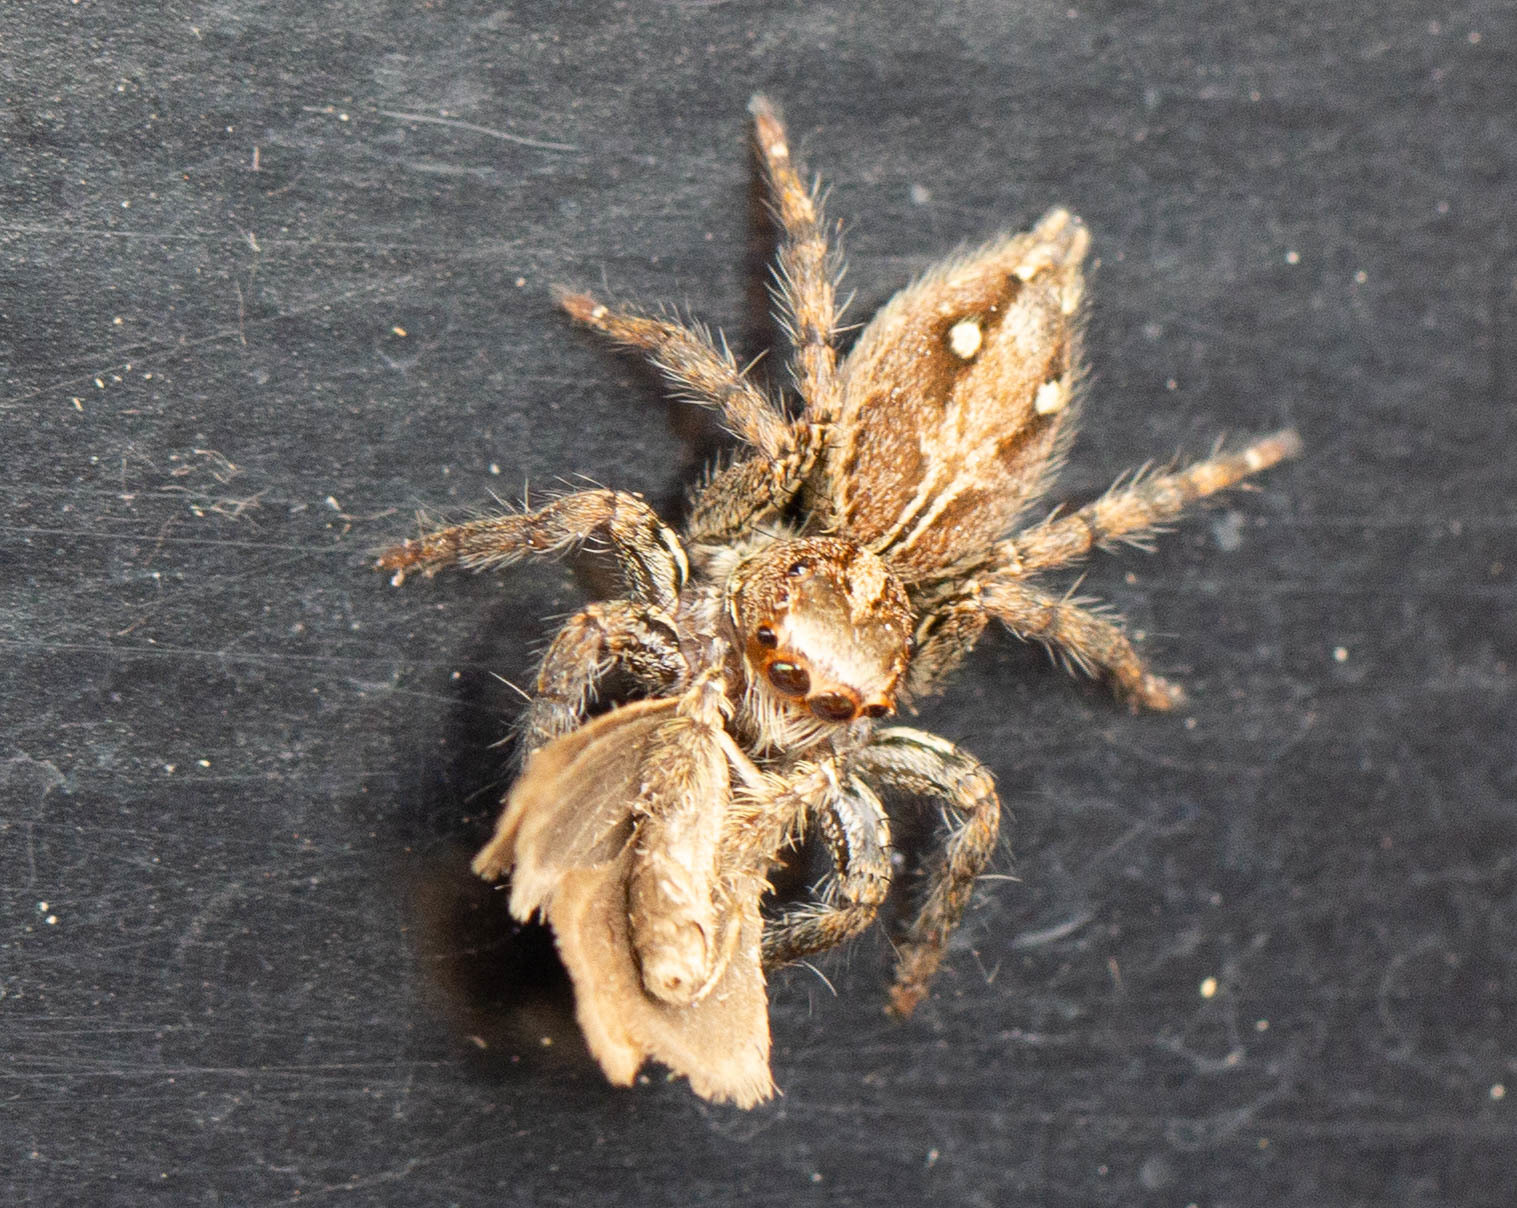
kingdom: Animalia
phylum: Arthropoda
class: Arachnida
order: Araneae
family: Salticidae
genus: Plexippus
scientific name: Plexippus paykulli
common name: Pantropical jumper
